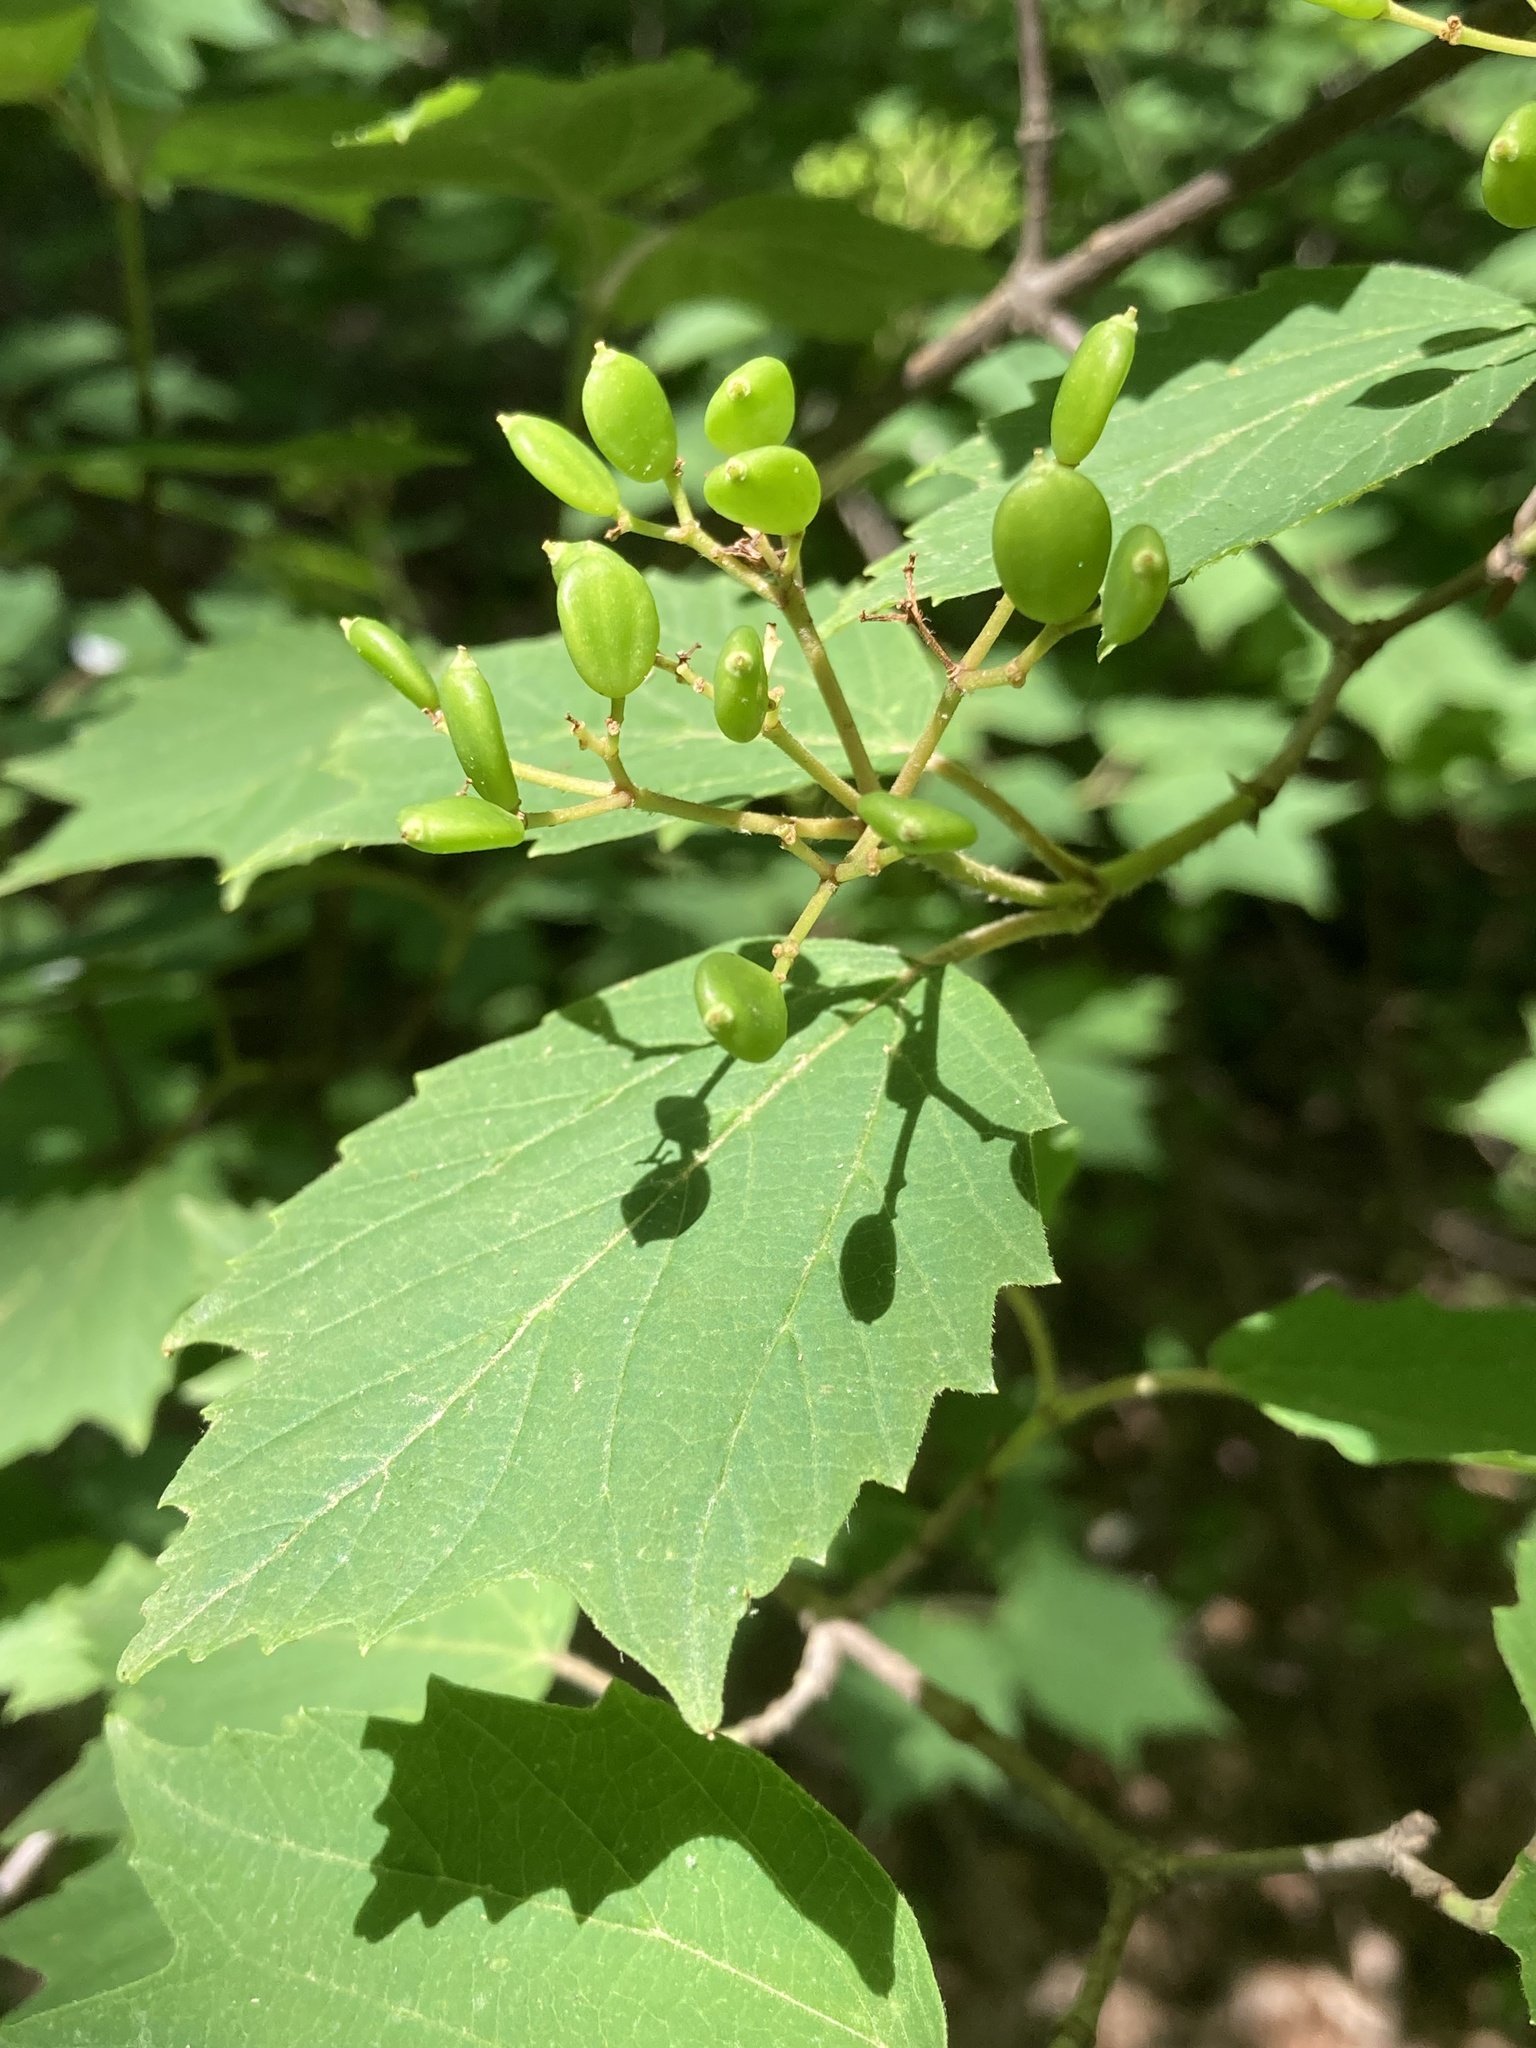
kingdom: Plantae
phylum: Tracheophyta
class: Magnoliopsida
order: Dipsacales
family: Viburnaceae
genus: Viburnum
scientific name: Viburnum acerifolium
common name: Dockmackie
